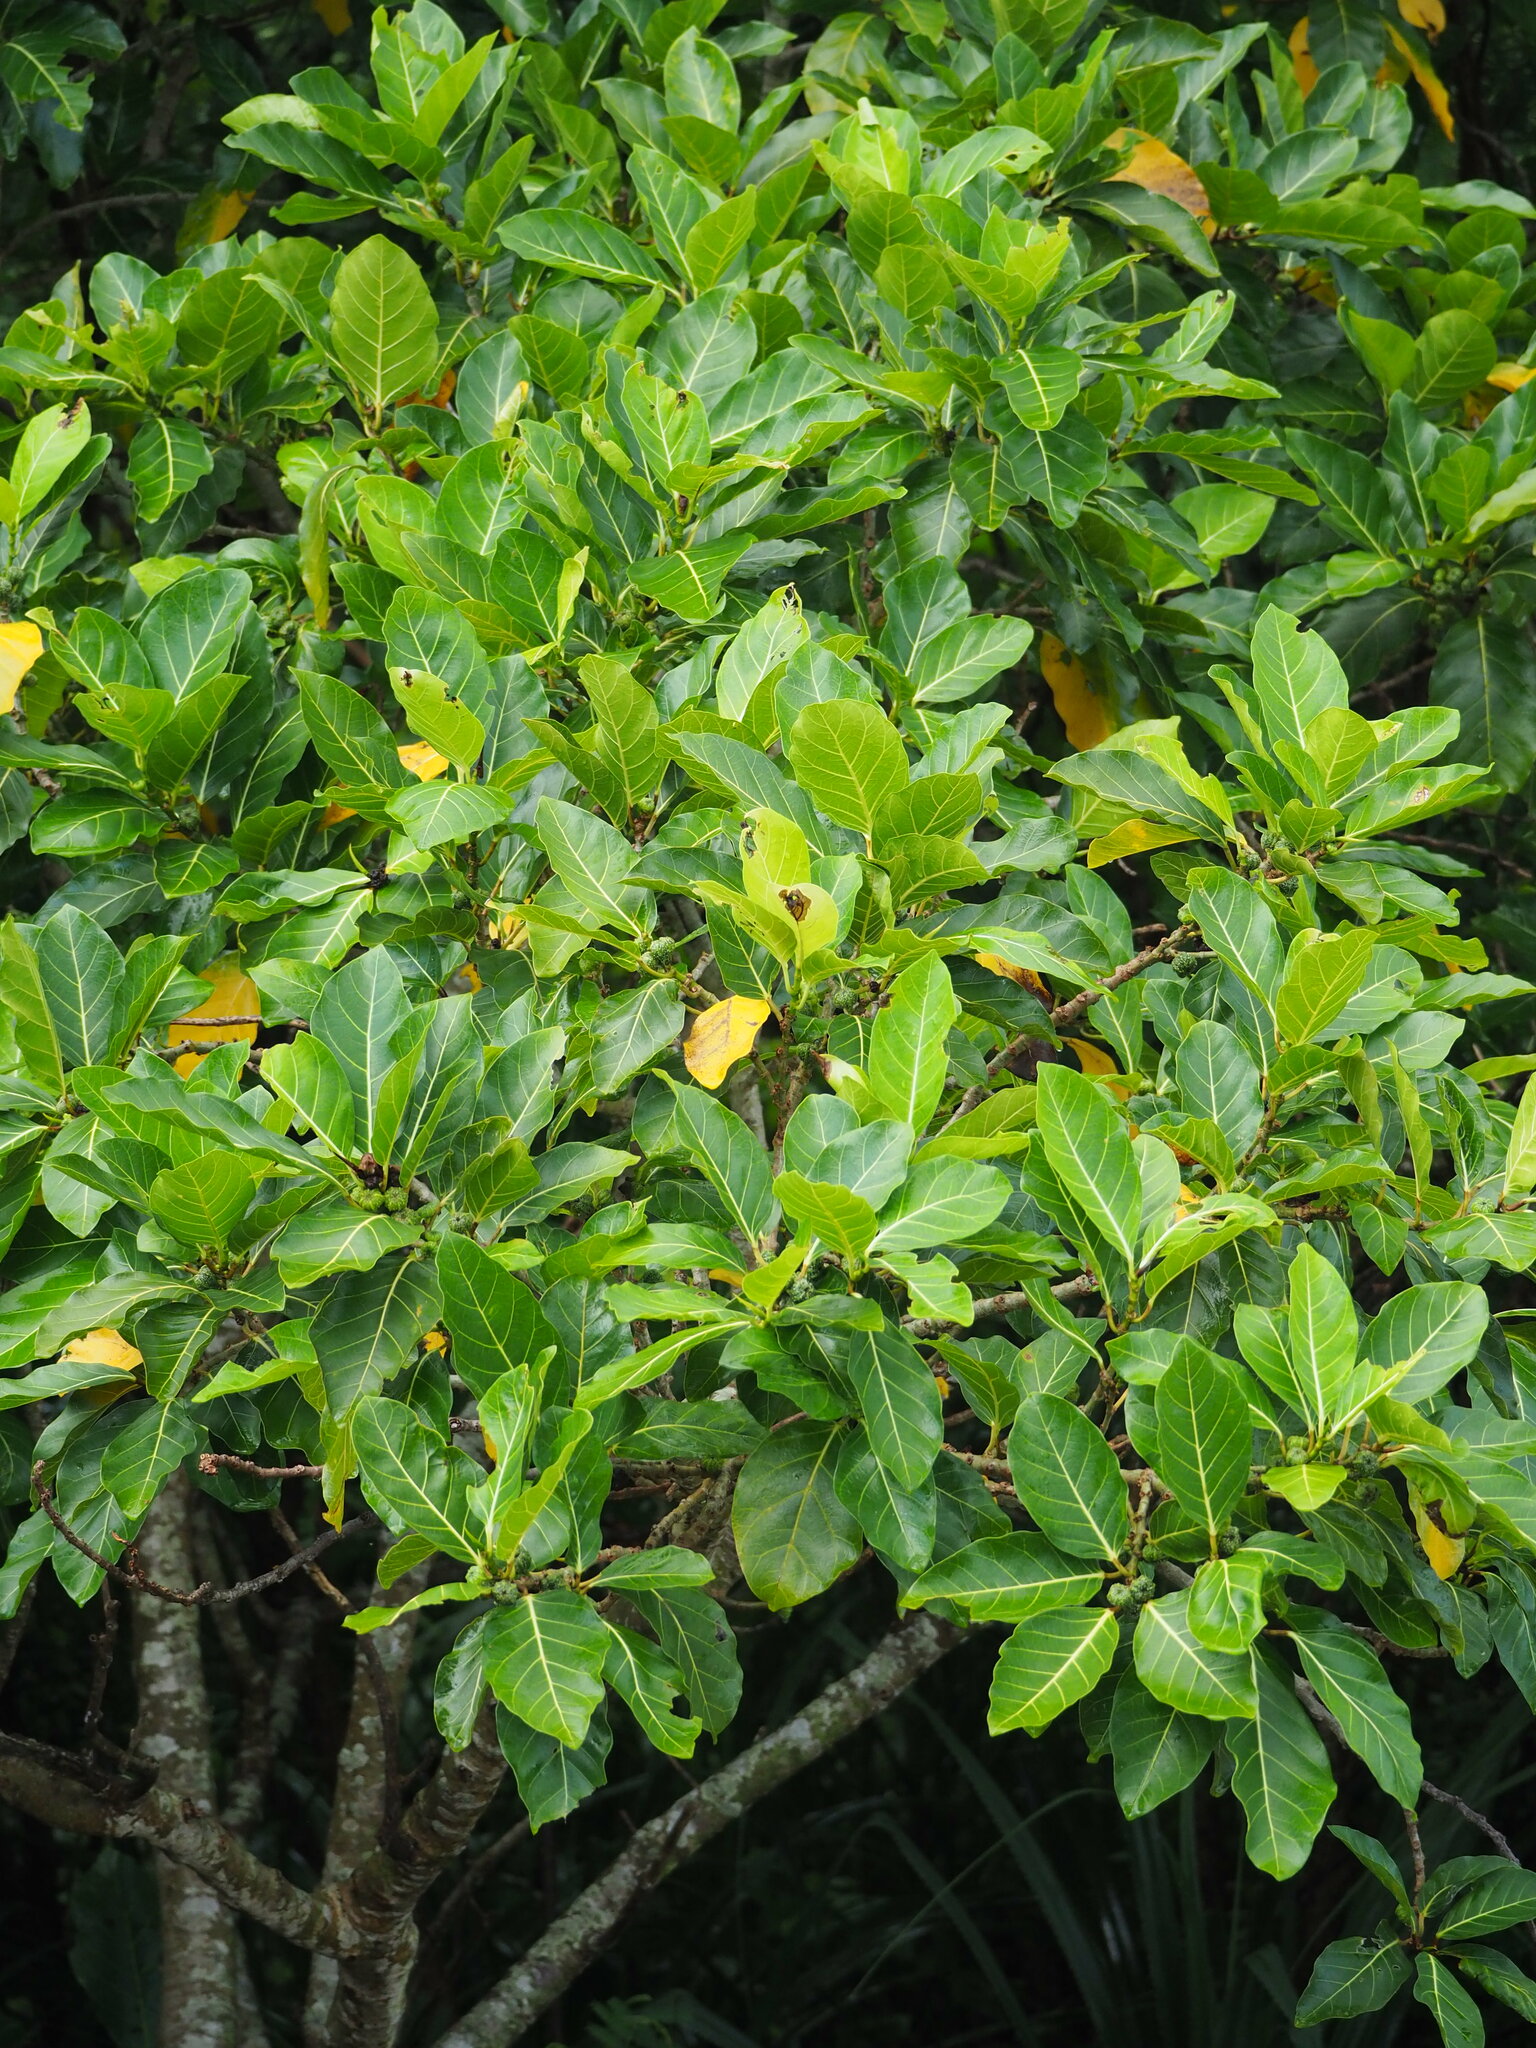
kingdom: Plantae
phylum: Tracheophyta
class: Magnoliopsida
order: Rosales
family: Moraceae
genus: Ficus
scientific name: Ficus septica
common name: Septic fig
